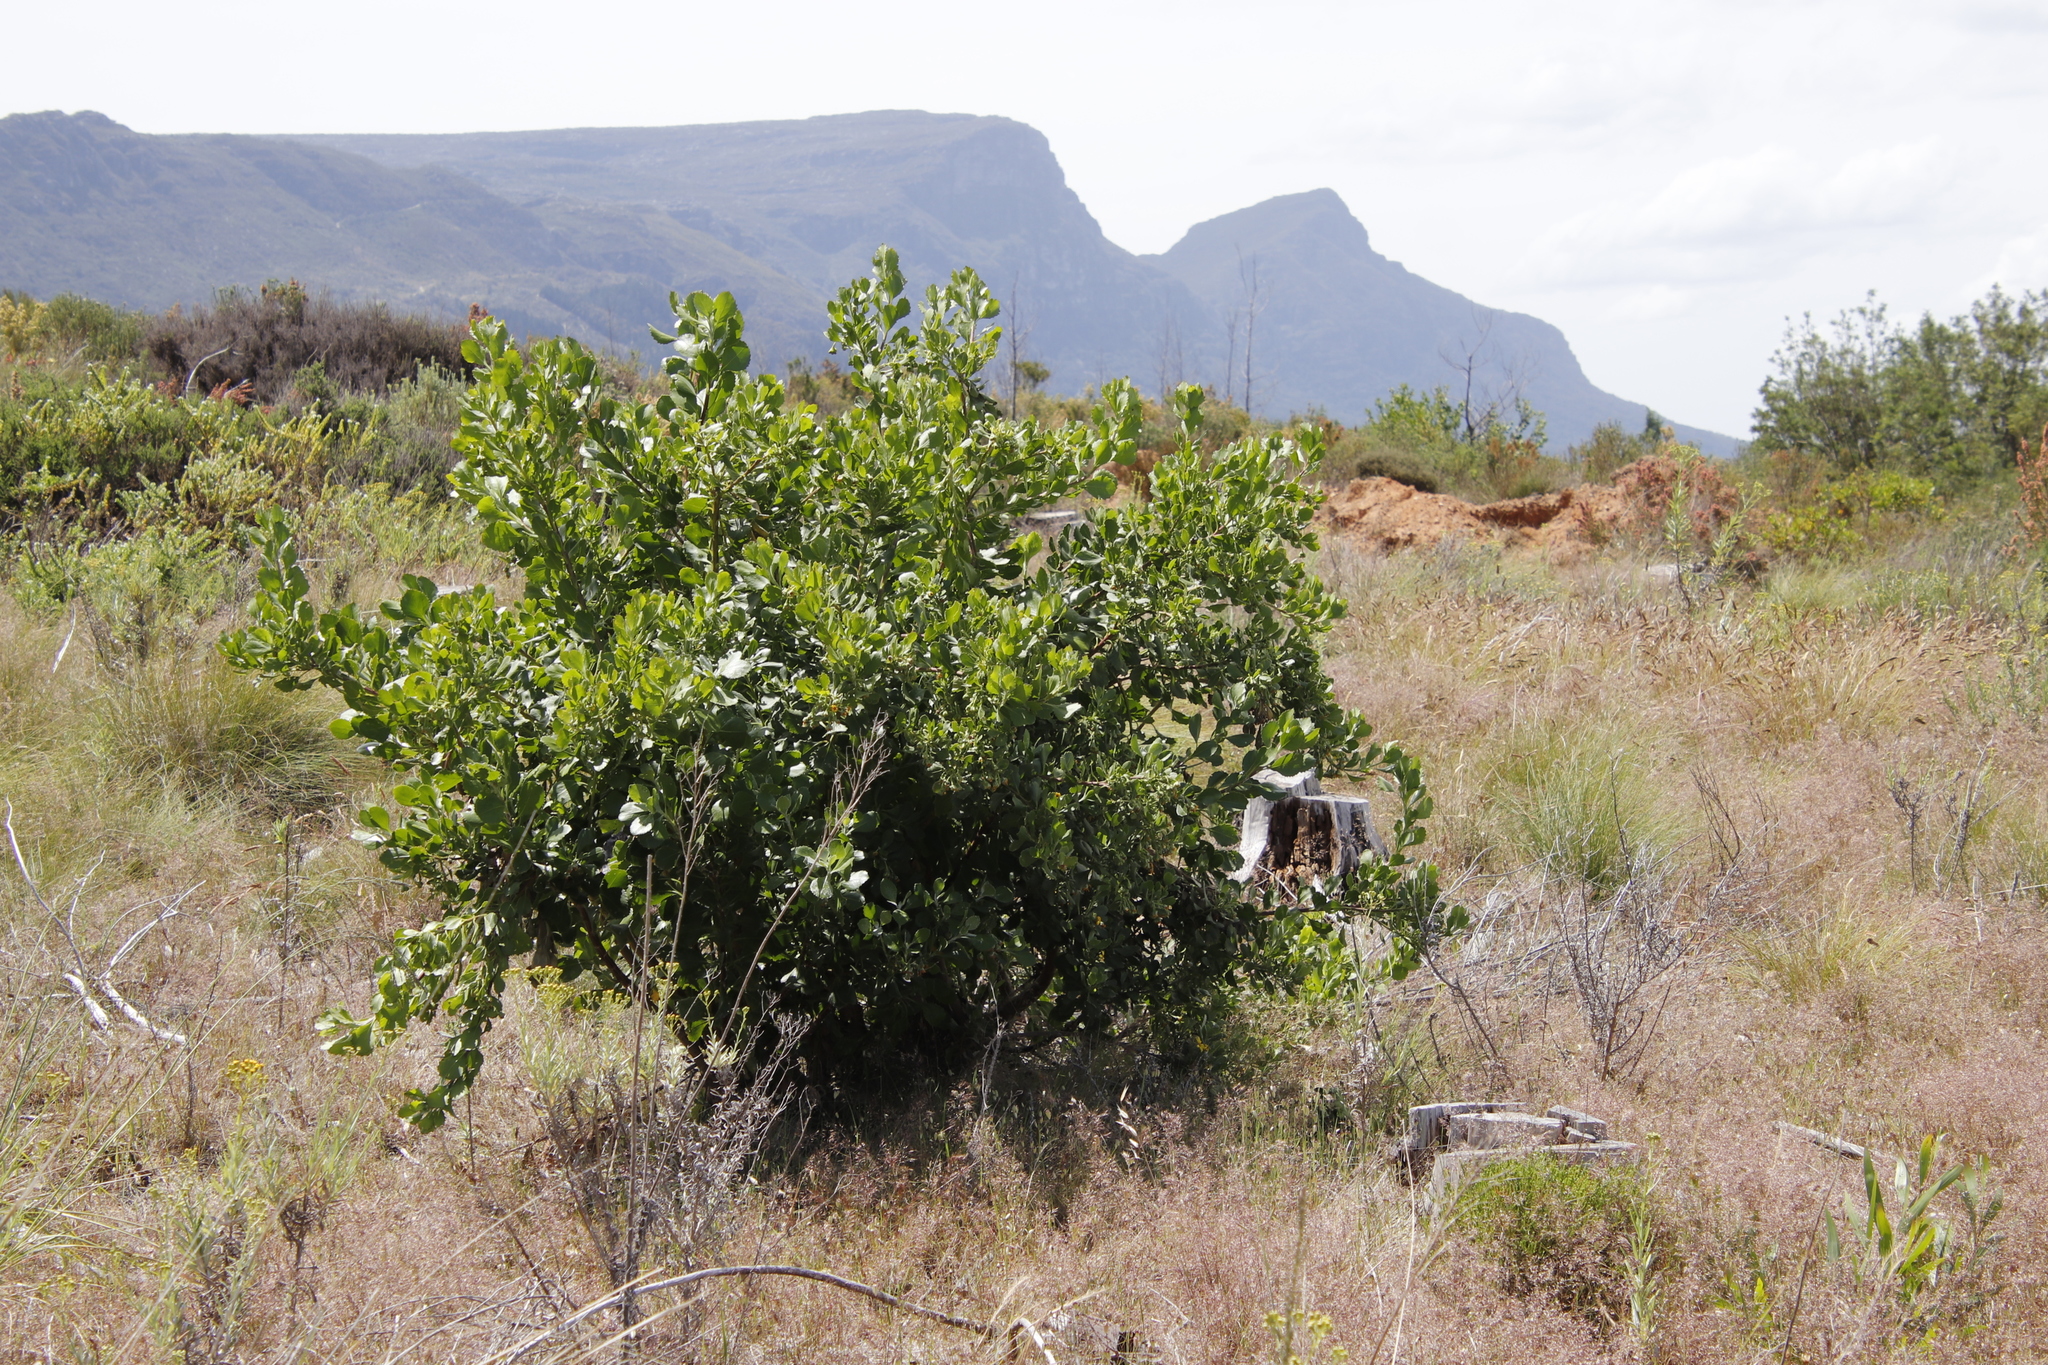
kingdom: Plantae
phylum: Tracheophyta
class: Magnoliopsida
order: Asterales
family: Asteraceae
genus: Osteospermum
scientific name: Osteospermum moniliferum
